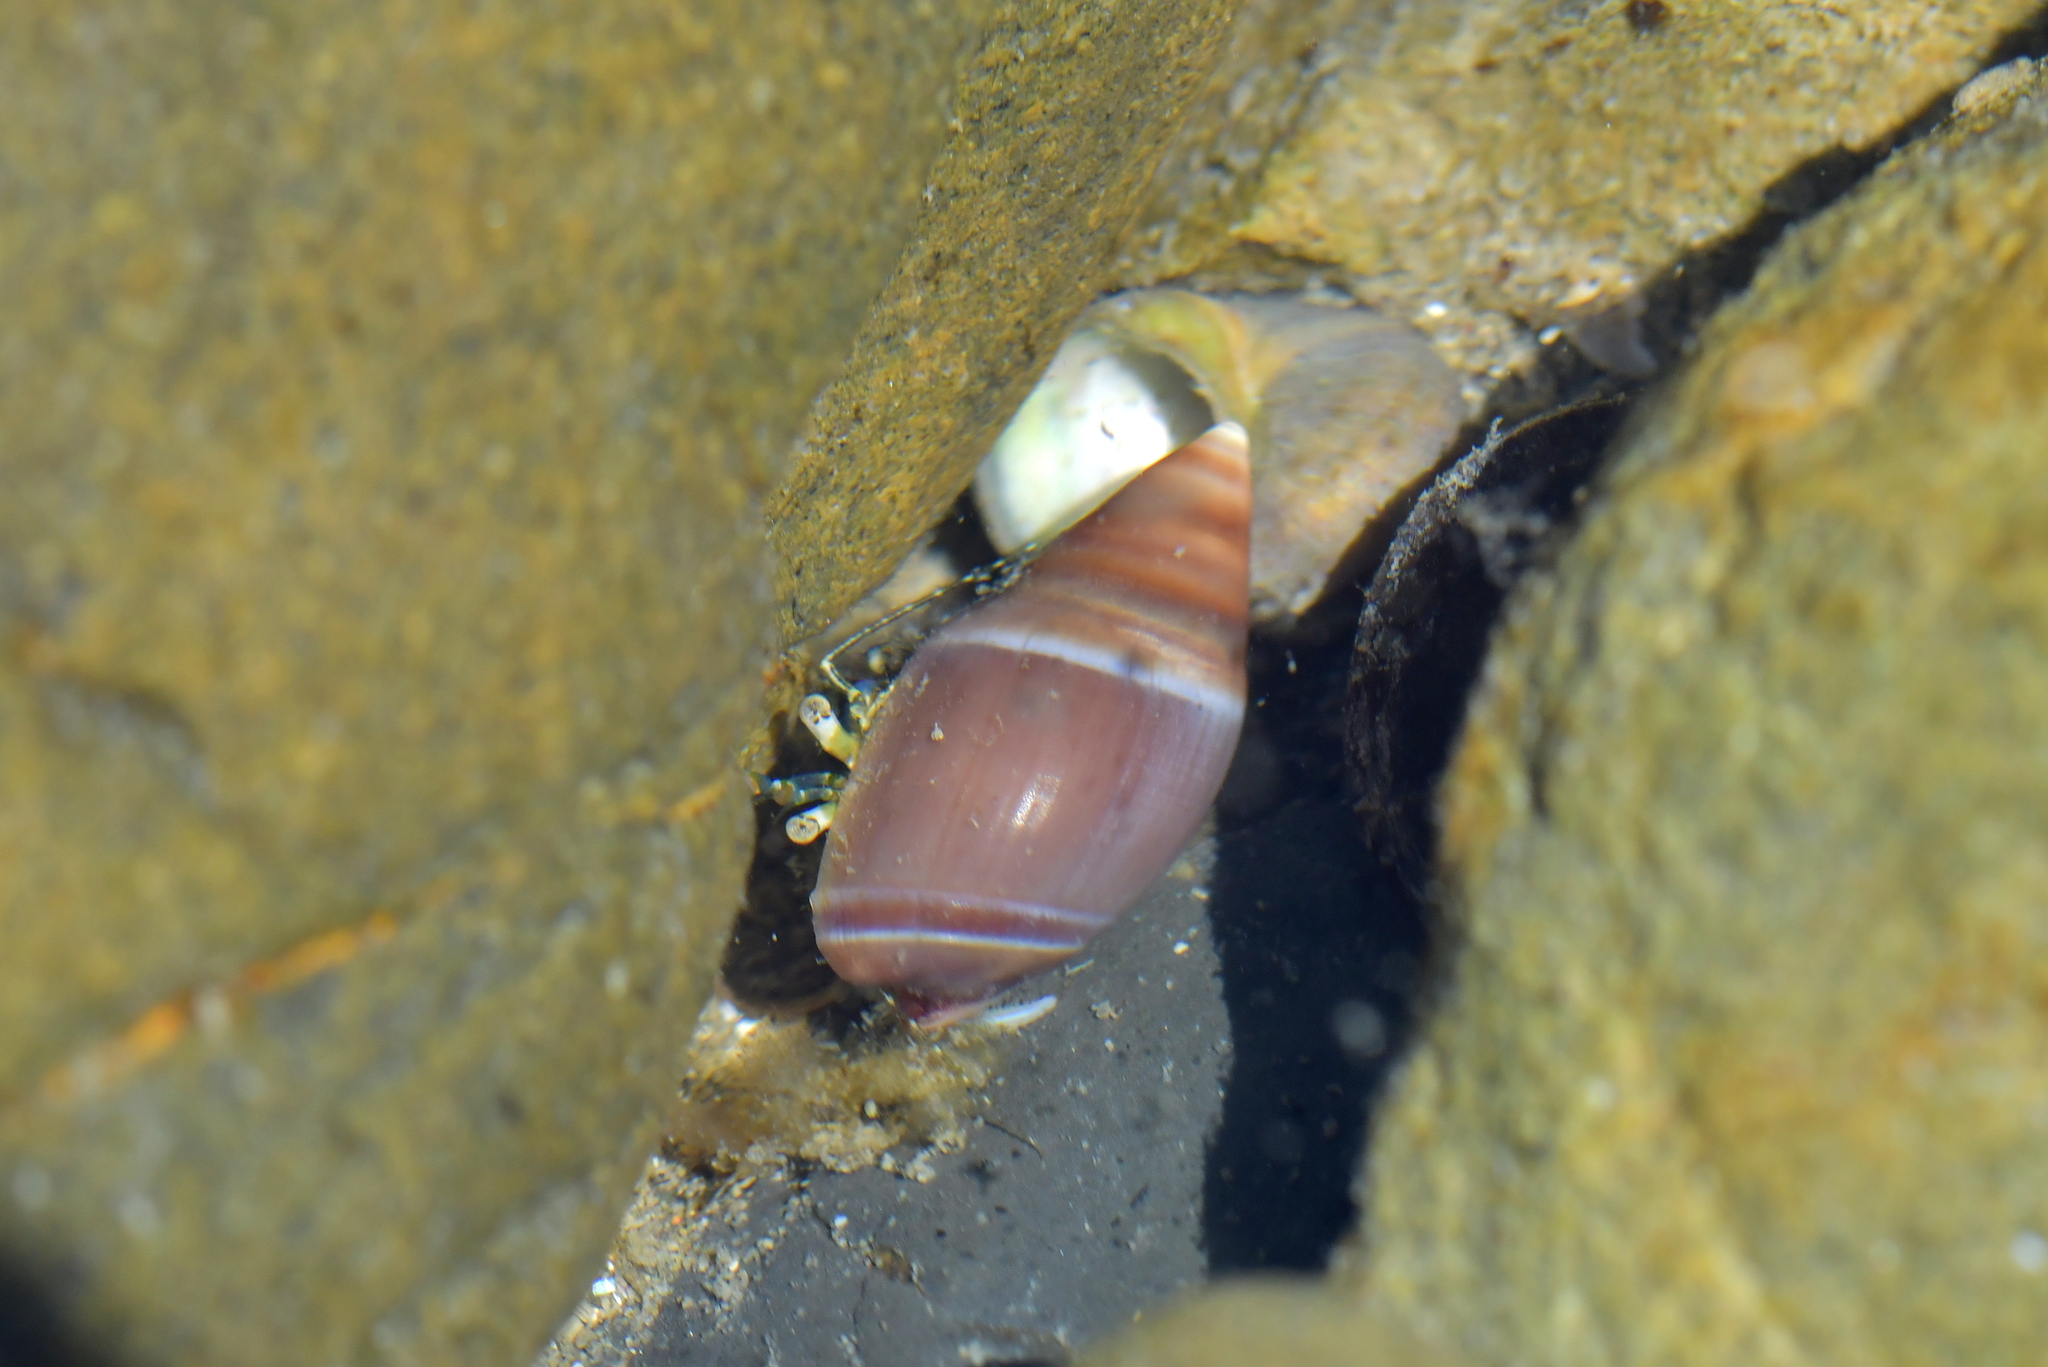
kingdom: Animalia
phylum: Arthropoda
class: Malacostraca
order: Decapoda
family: Paguridae
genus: Pagurus
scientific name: Pagurus novizealandiae
